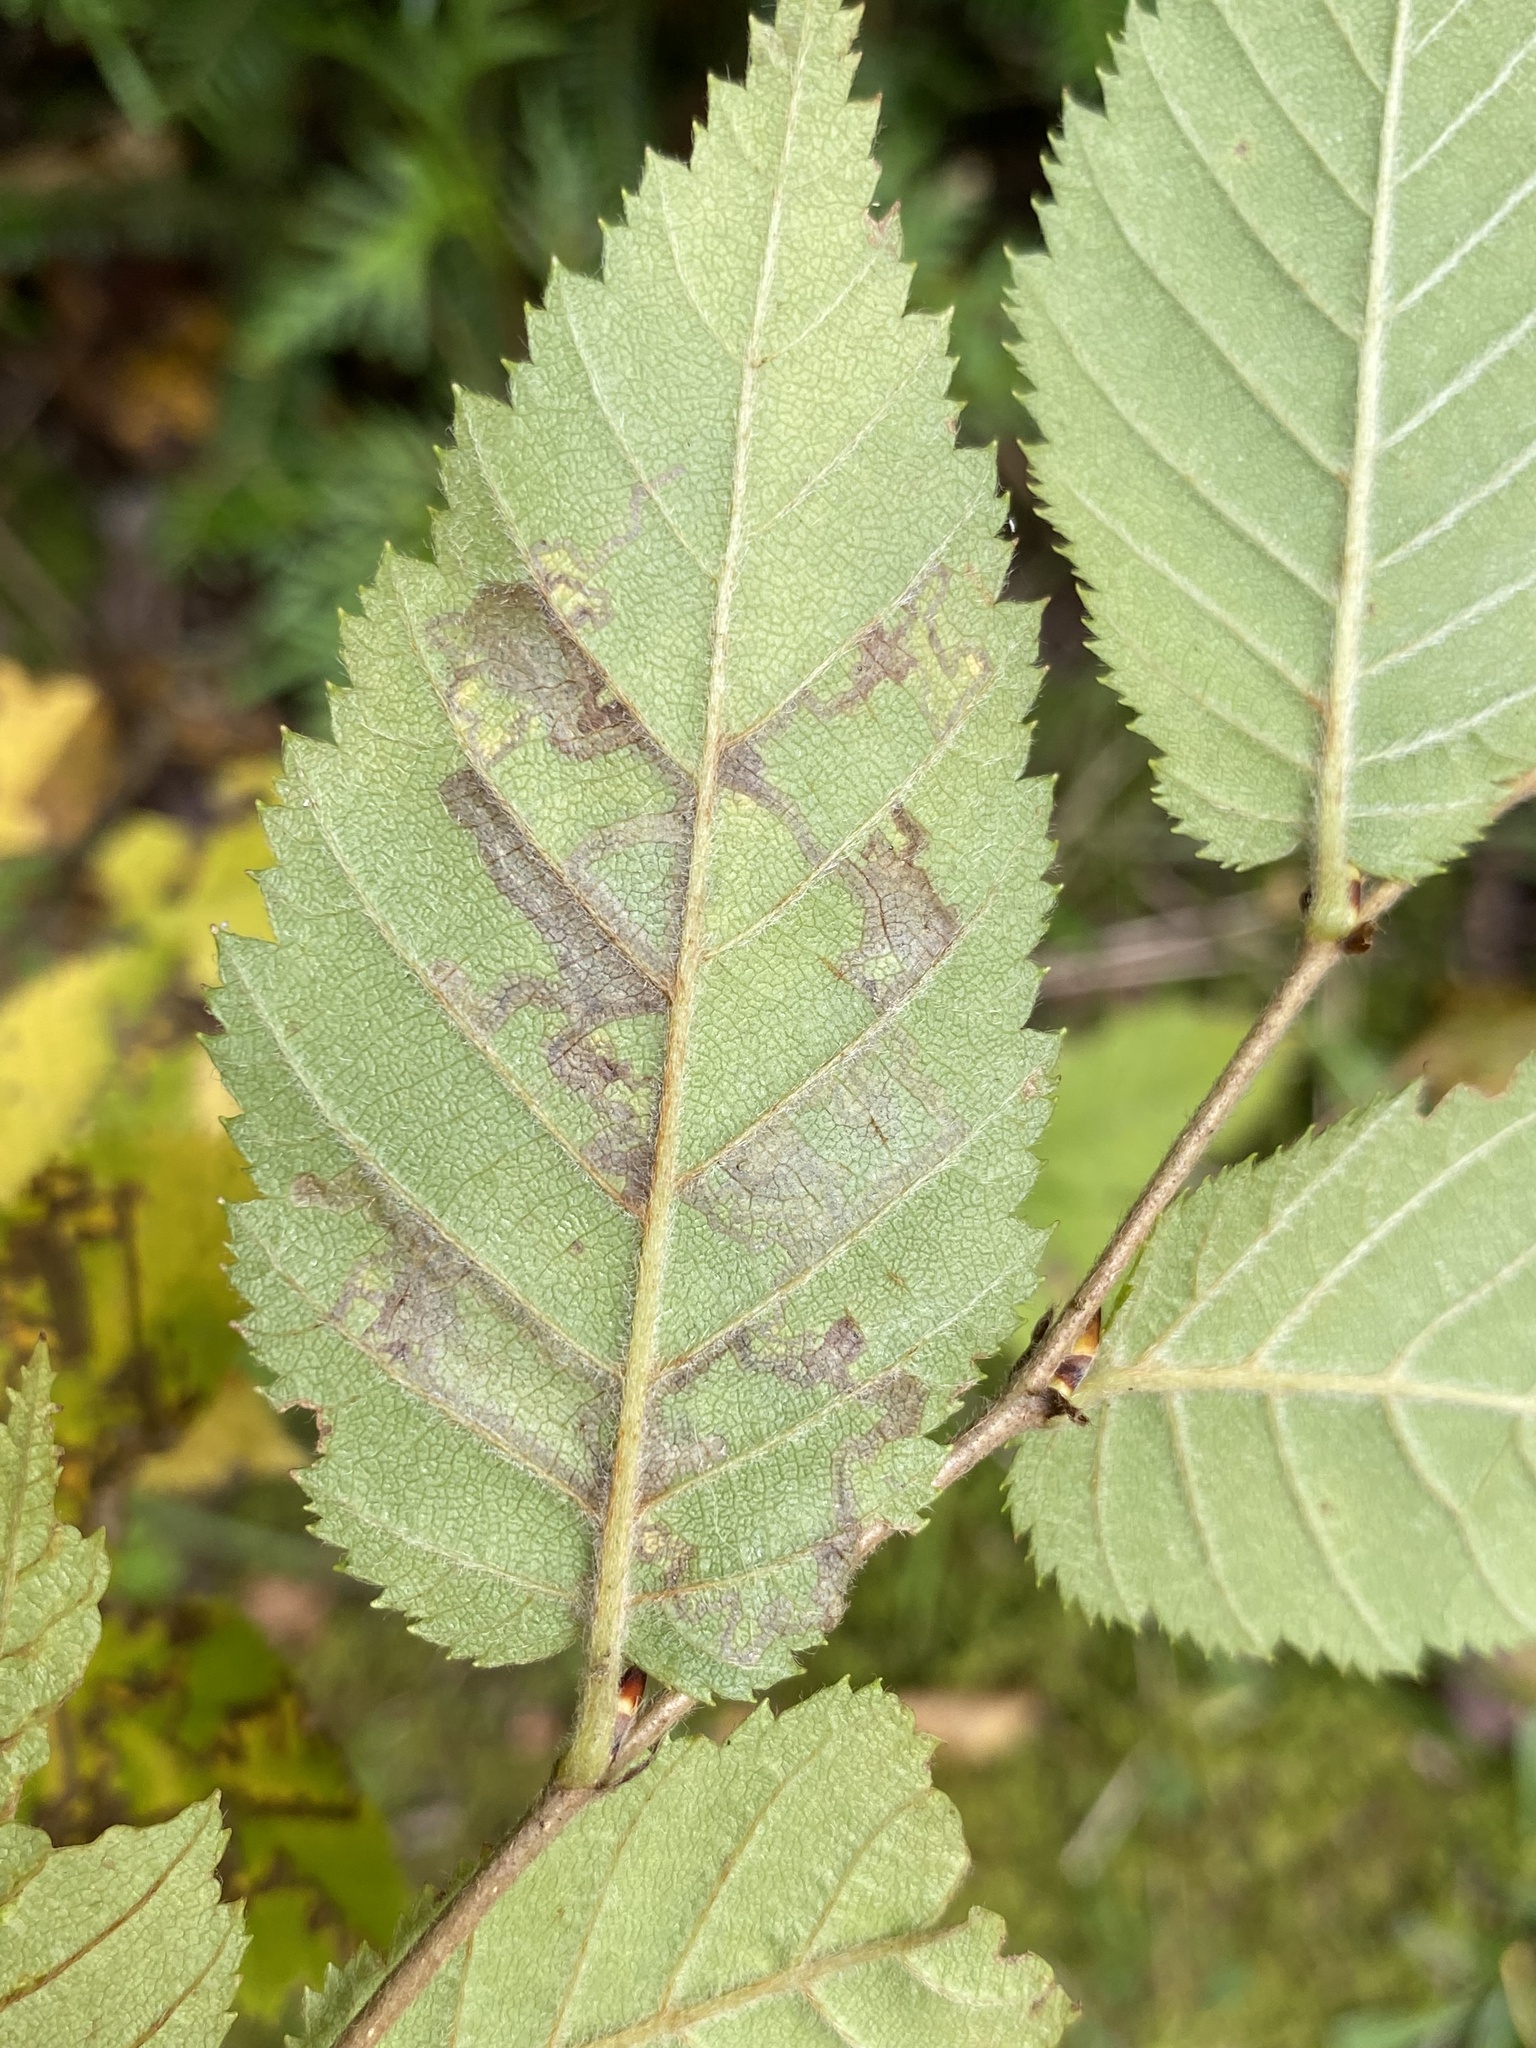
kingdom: Animalia
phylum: Arthropoda
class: Insecta
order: Lepidoptera
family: Nepticulidae
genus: Stigmella
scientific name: Stigmella betulicola
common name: Common birch pigmy
